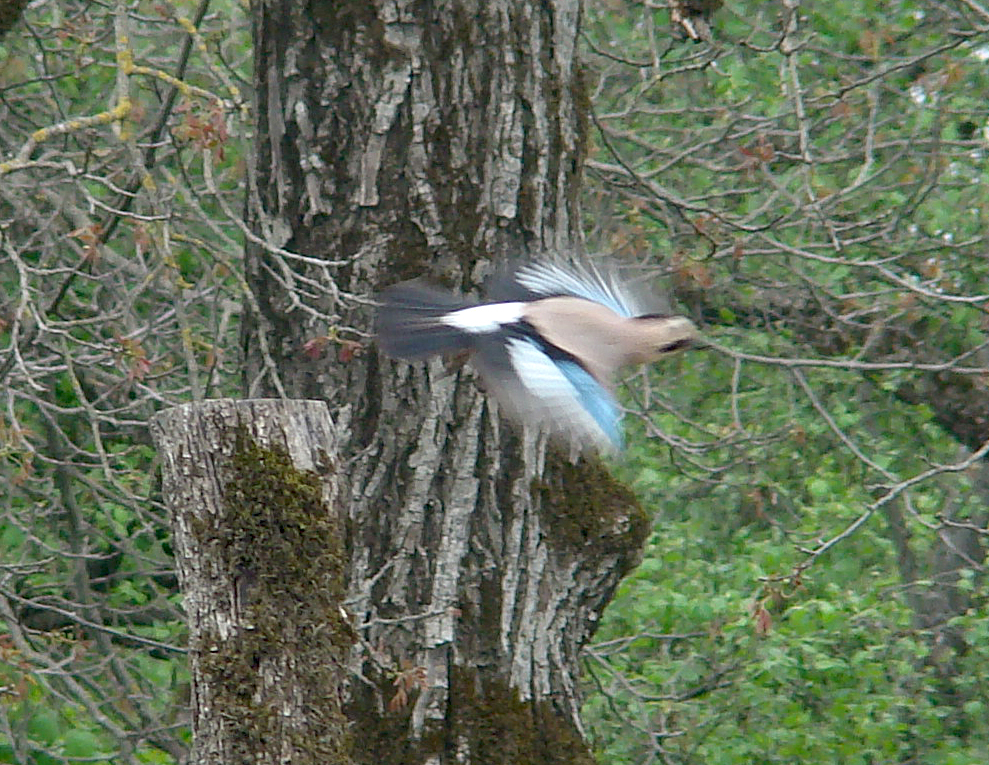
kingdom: Animalia
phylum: Chordata
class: Aves
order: Passeriformes
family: Corvidae
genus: Garrulus
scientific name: Garrulus glandarius
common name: Eurasian jay
